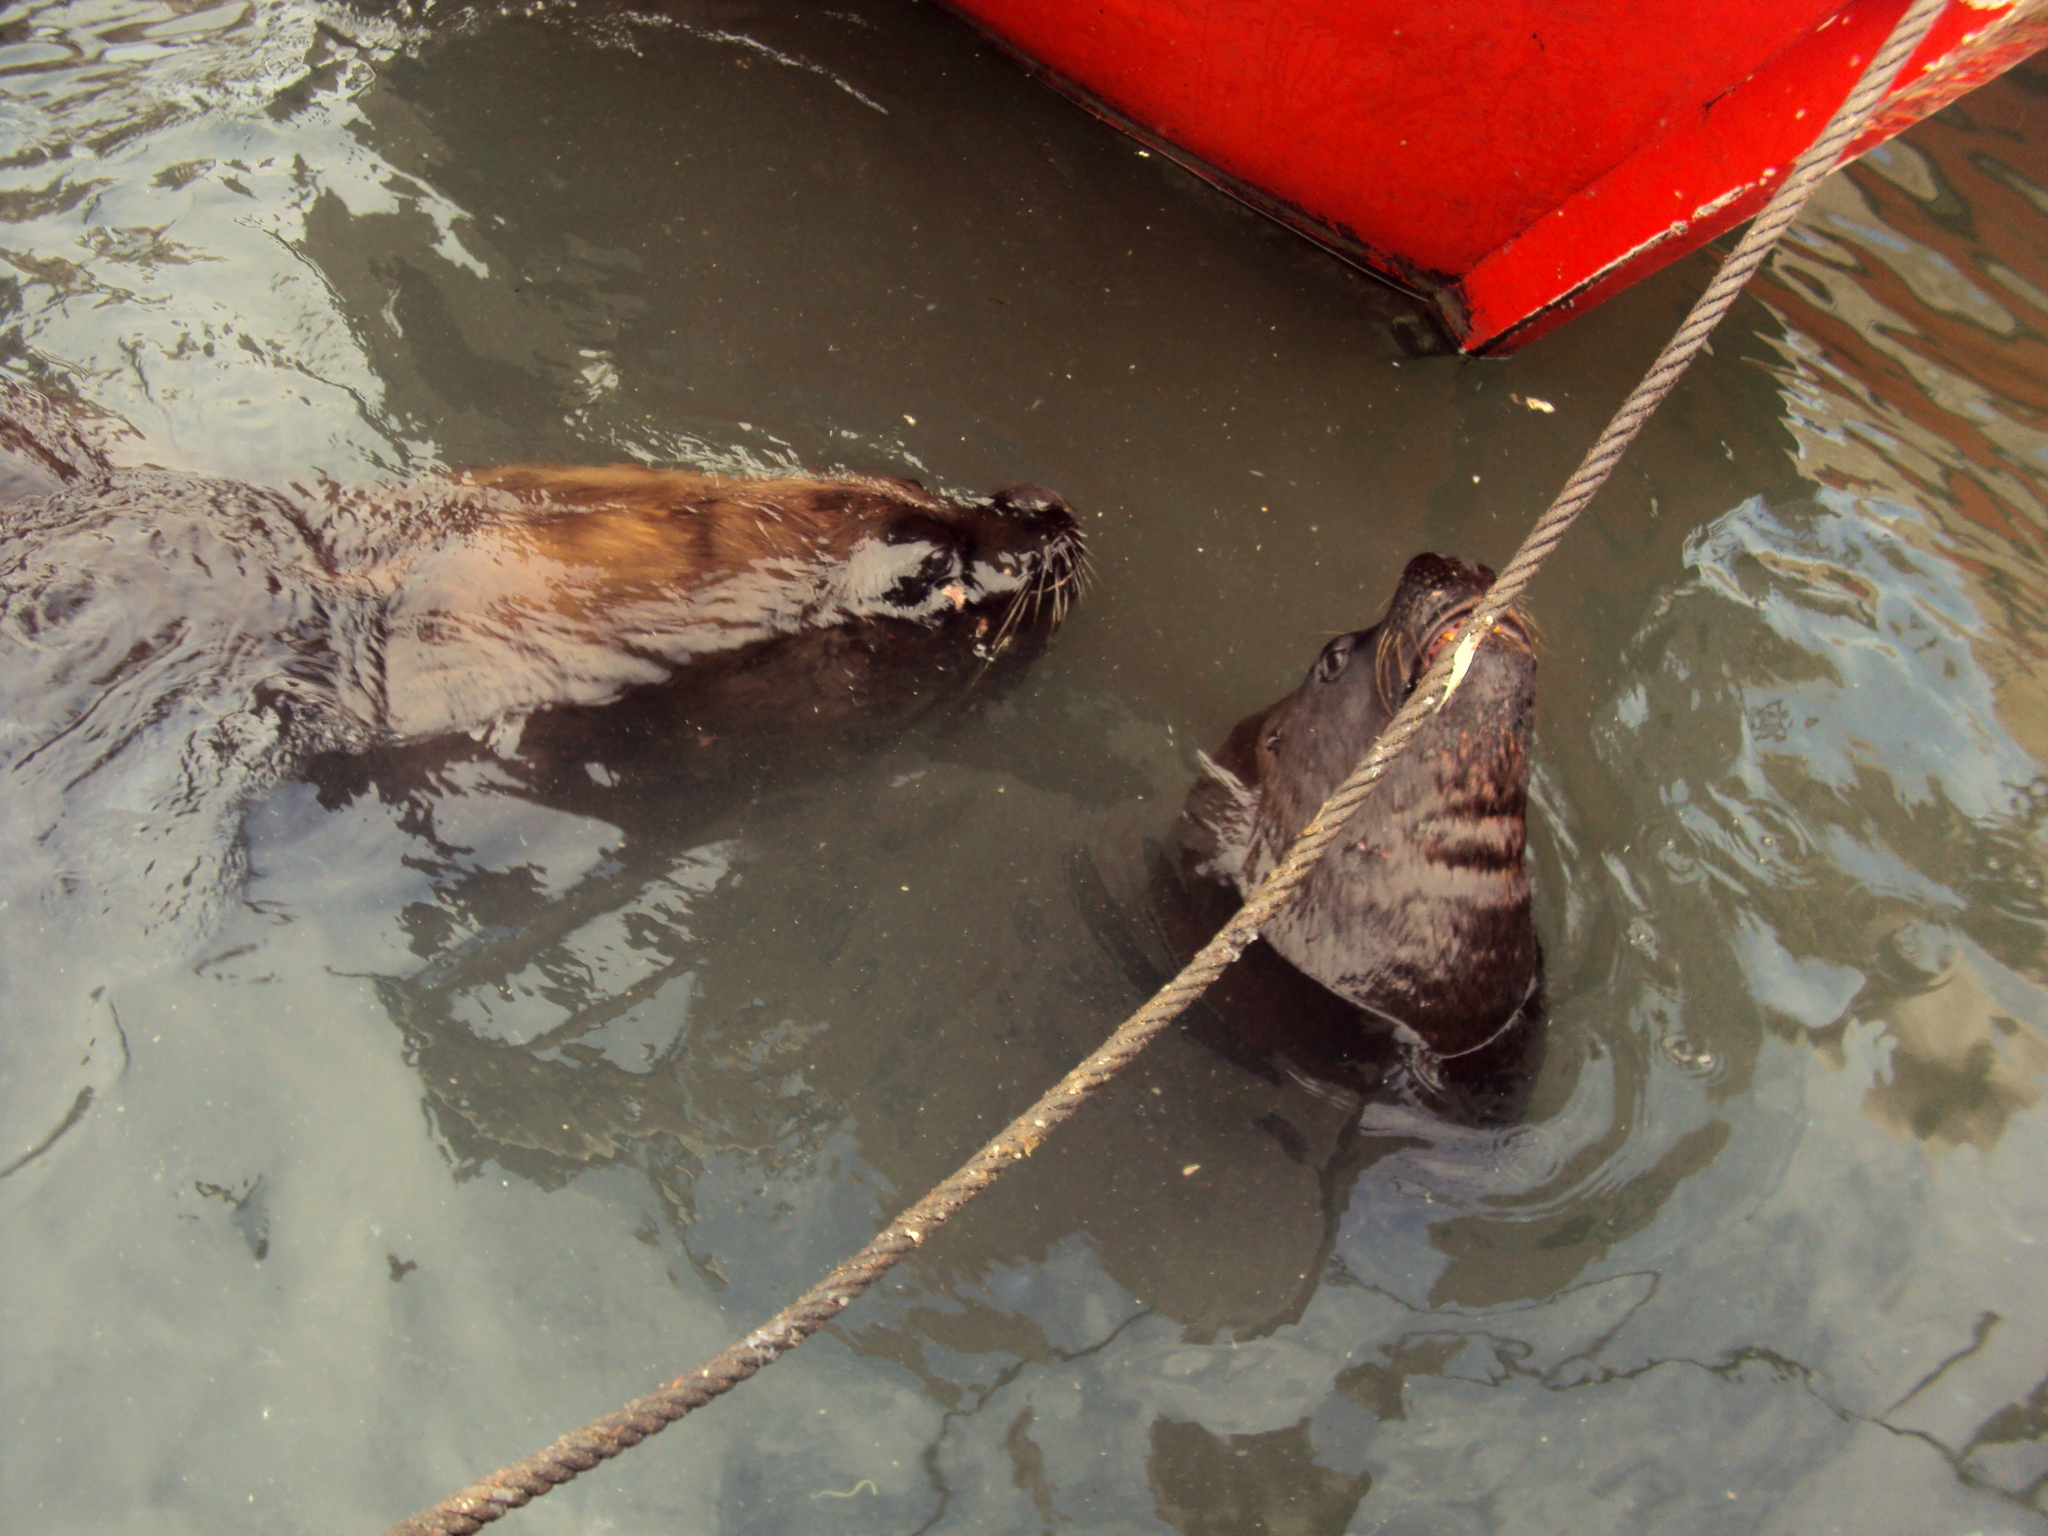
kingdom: Animalia
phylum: Chordata
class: Mammalia
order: Carnivora
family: Otariidae
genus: Otaria
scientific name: Otaria byronia
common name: South american sea lion
